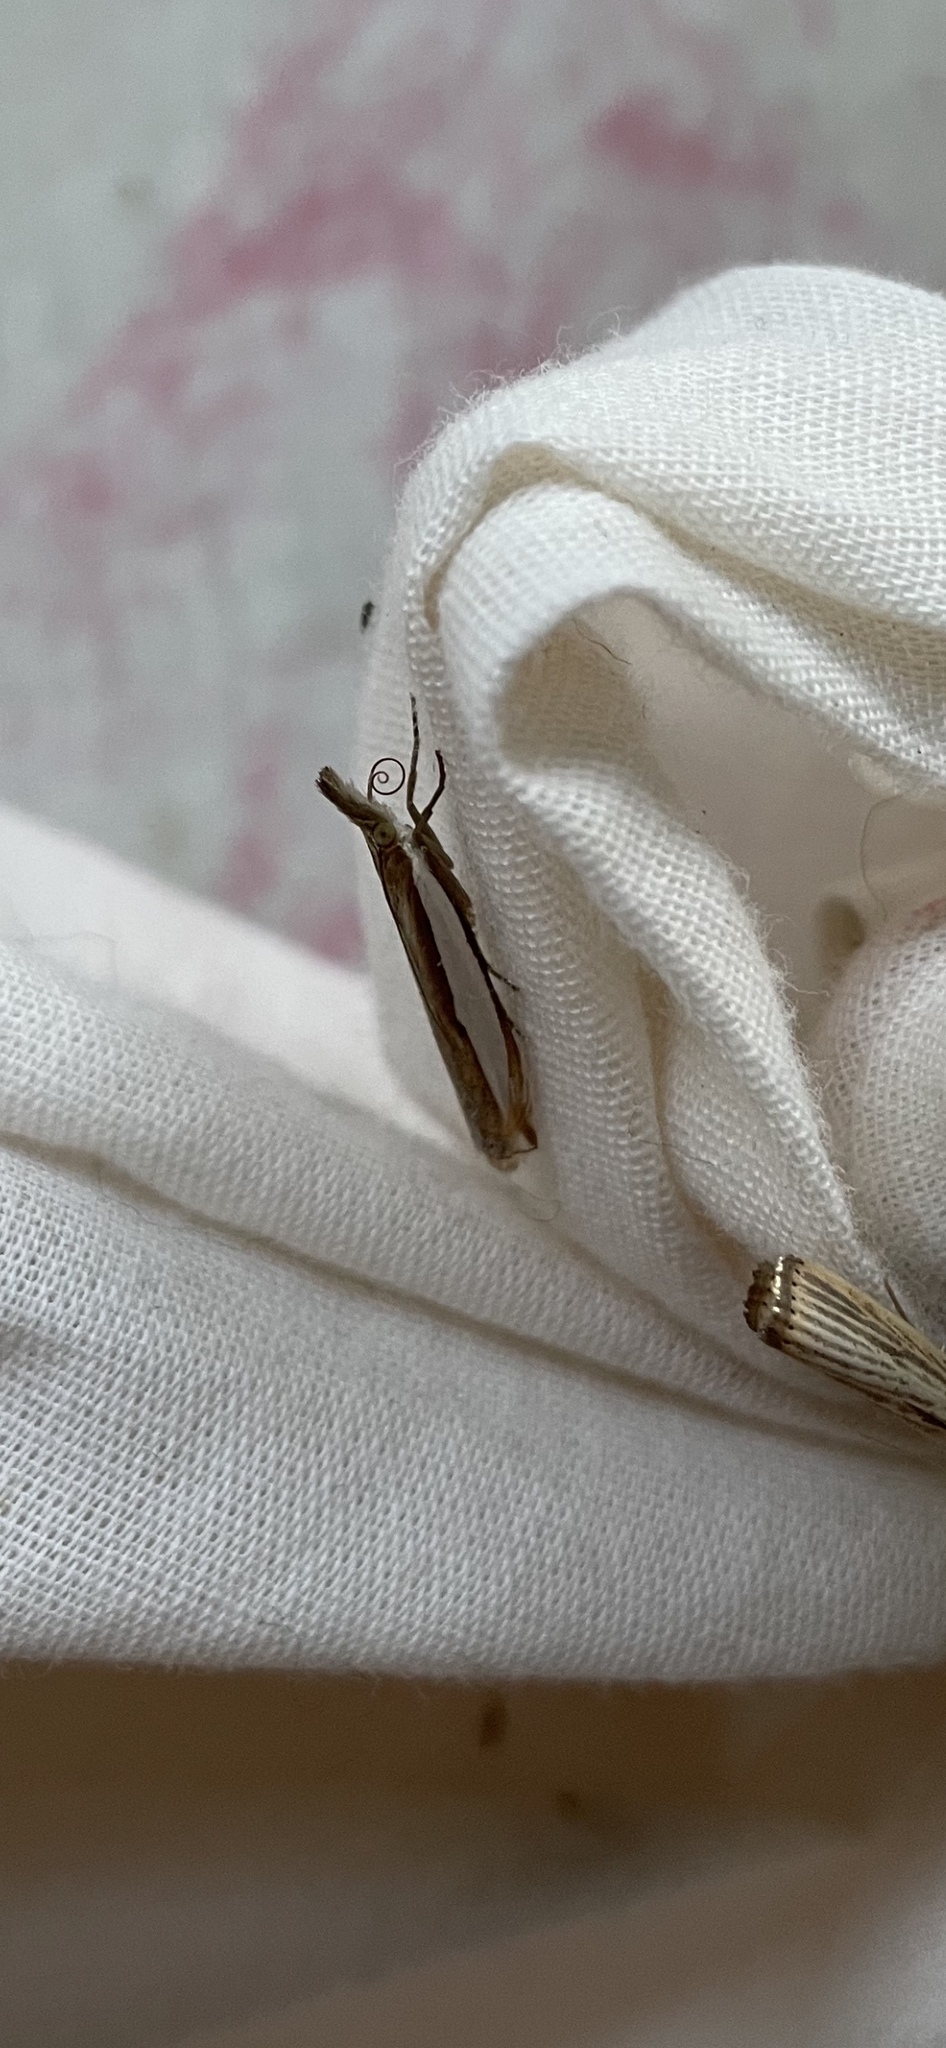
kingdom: Animalia
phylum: Arthropoda
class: Insecta
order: Lepidoptera
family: Crambidae
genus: Crambus
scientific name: Crambus leachellus
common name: Leach's grass-veneer
